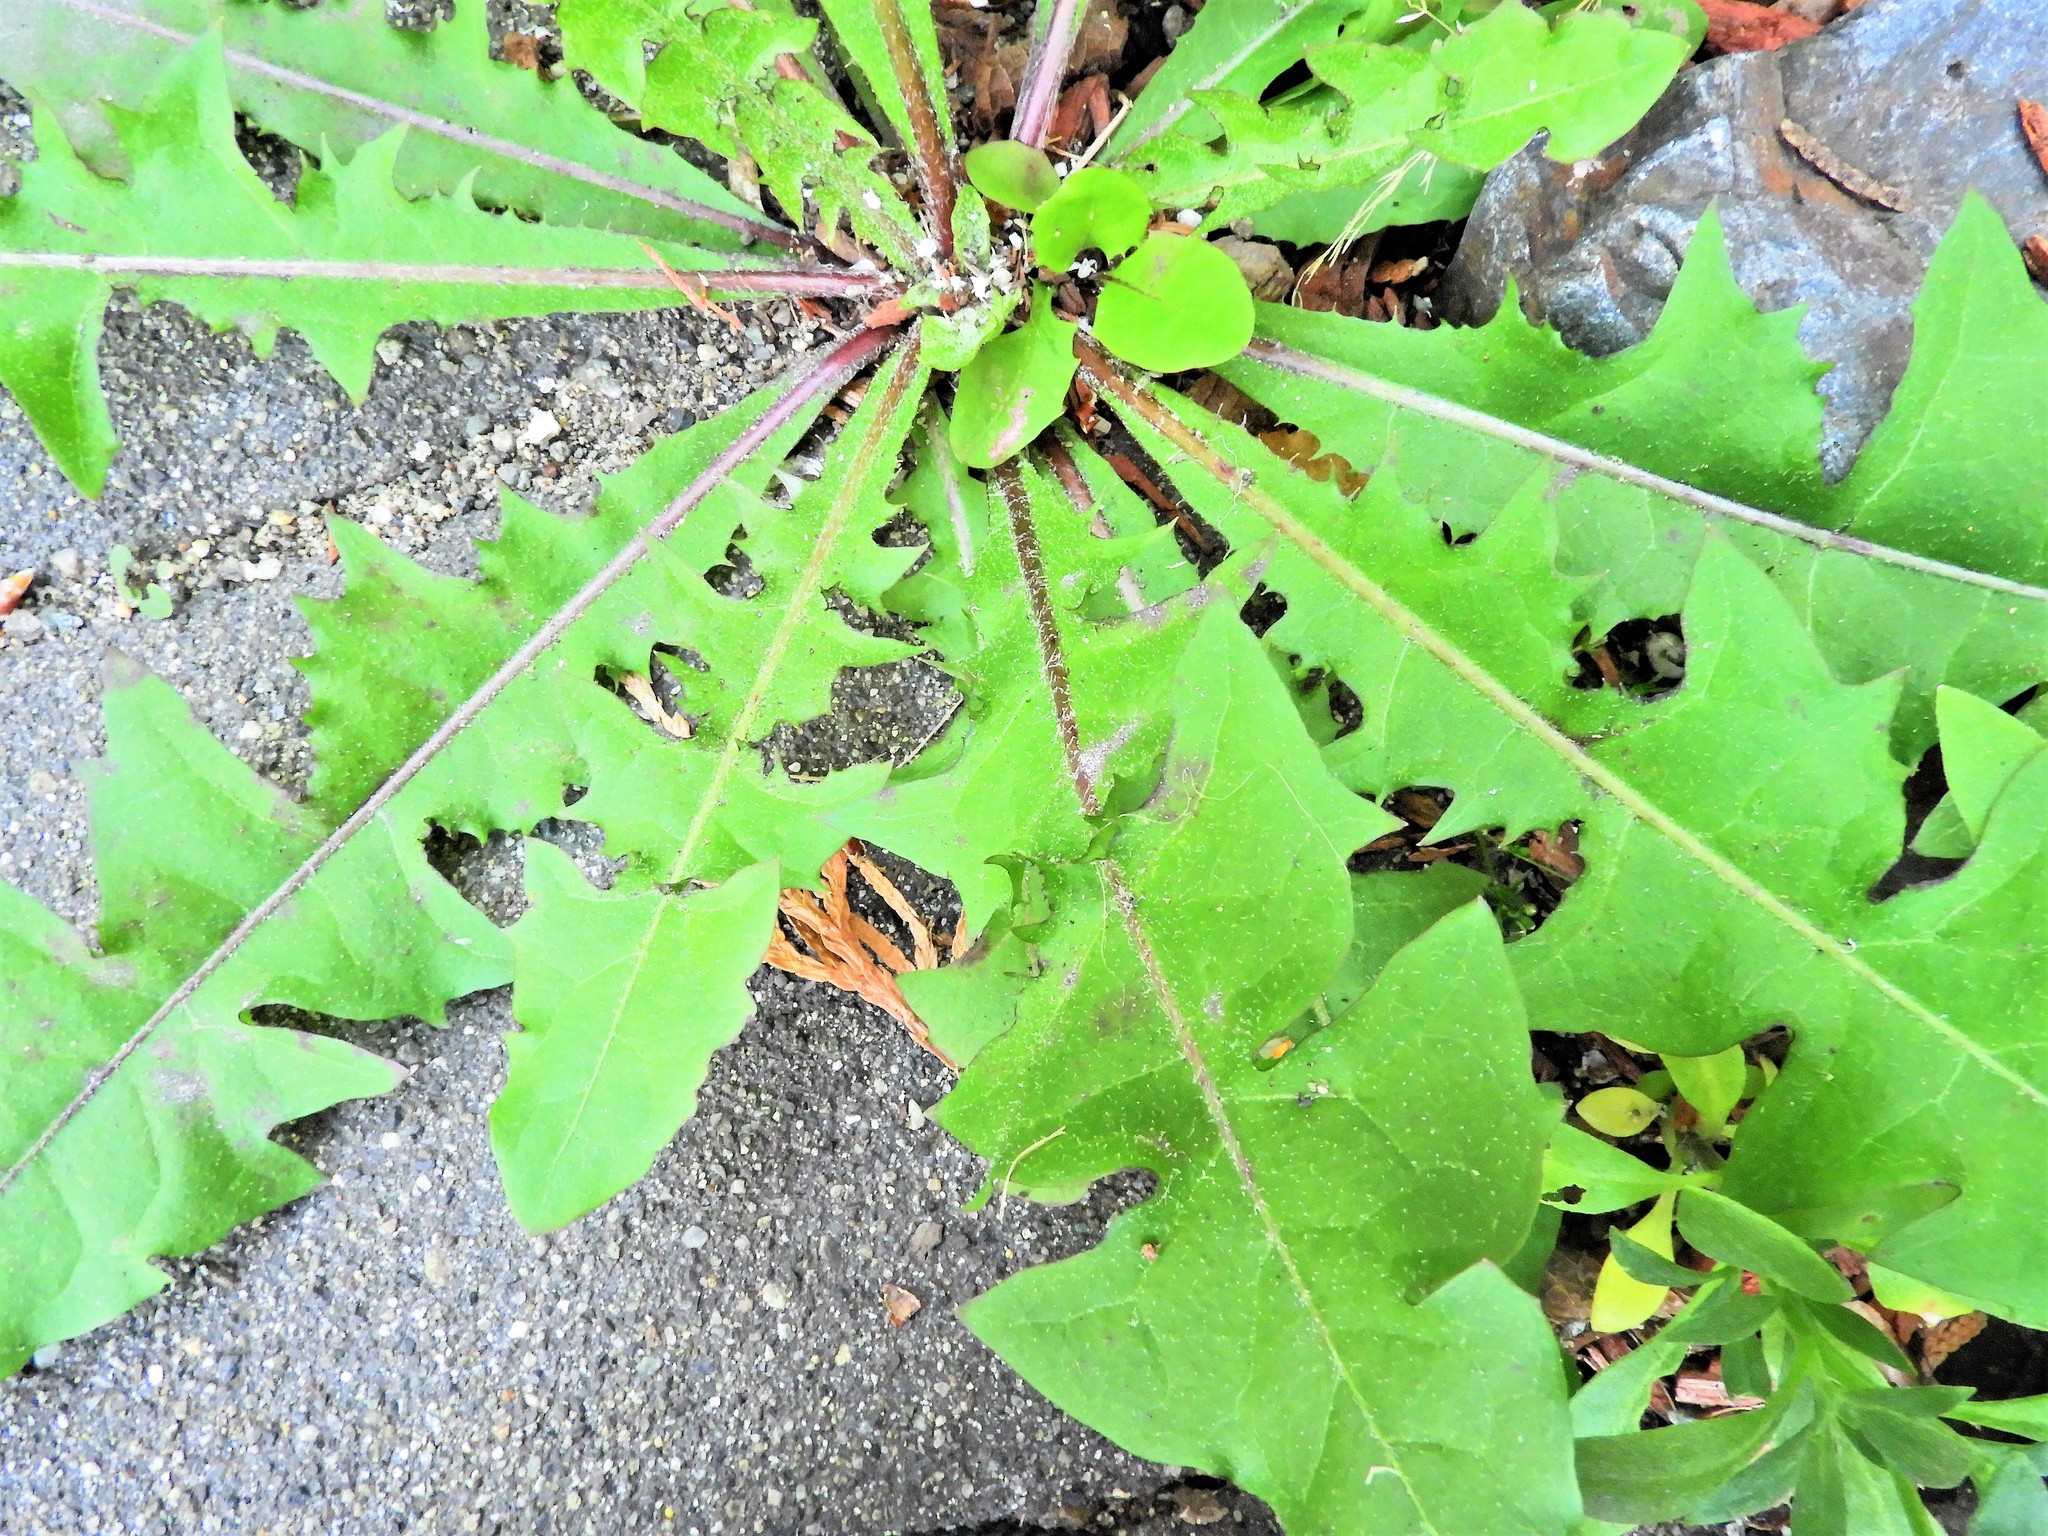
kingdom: Plantae
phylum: Tracheophyta
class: Magnoliopsida
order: Asterales
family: Asteraceae
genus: Taraxacum
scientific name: Taraxacum officinale
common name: Common dandelion
